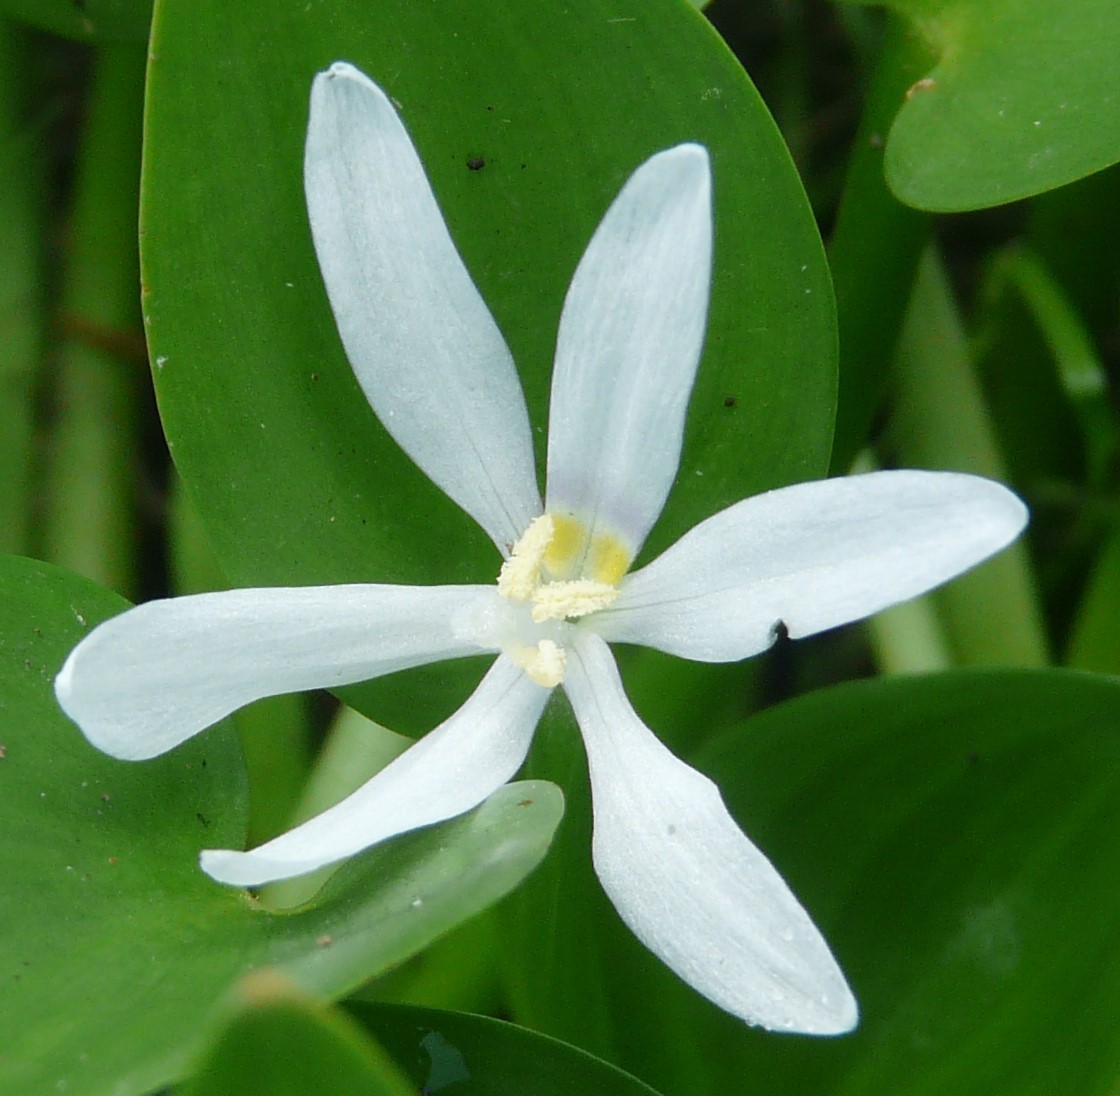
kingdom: Plantae
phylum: Tracheophyta
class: Liliopsida
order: Commelinales
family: Pontederiaceae
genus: Heteranthera
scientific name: Heteranthera limosa
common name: Blue mud-plantain
